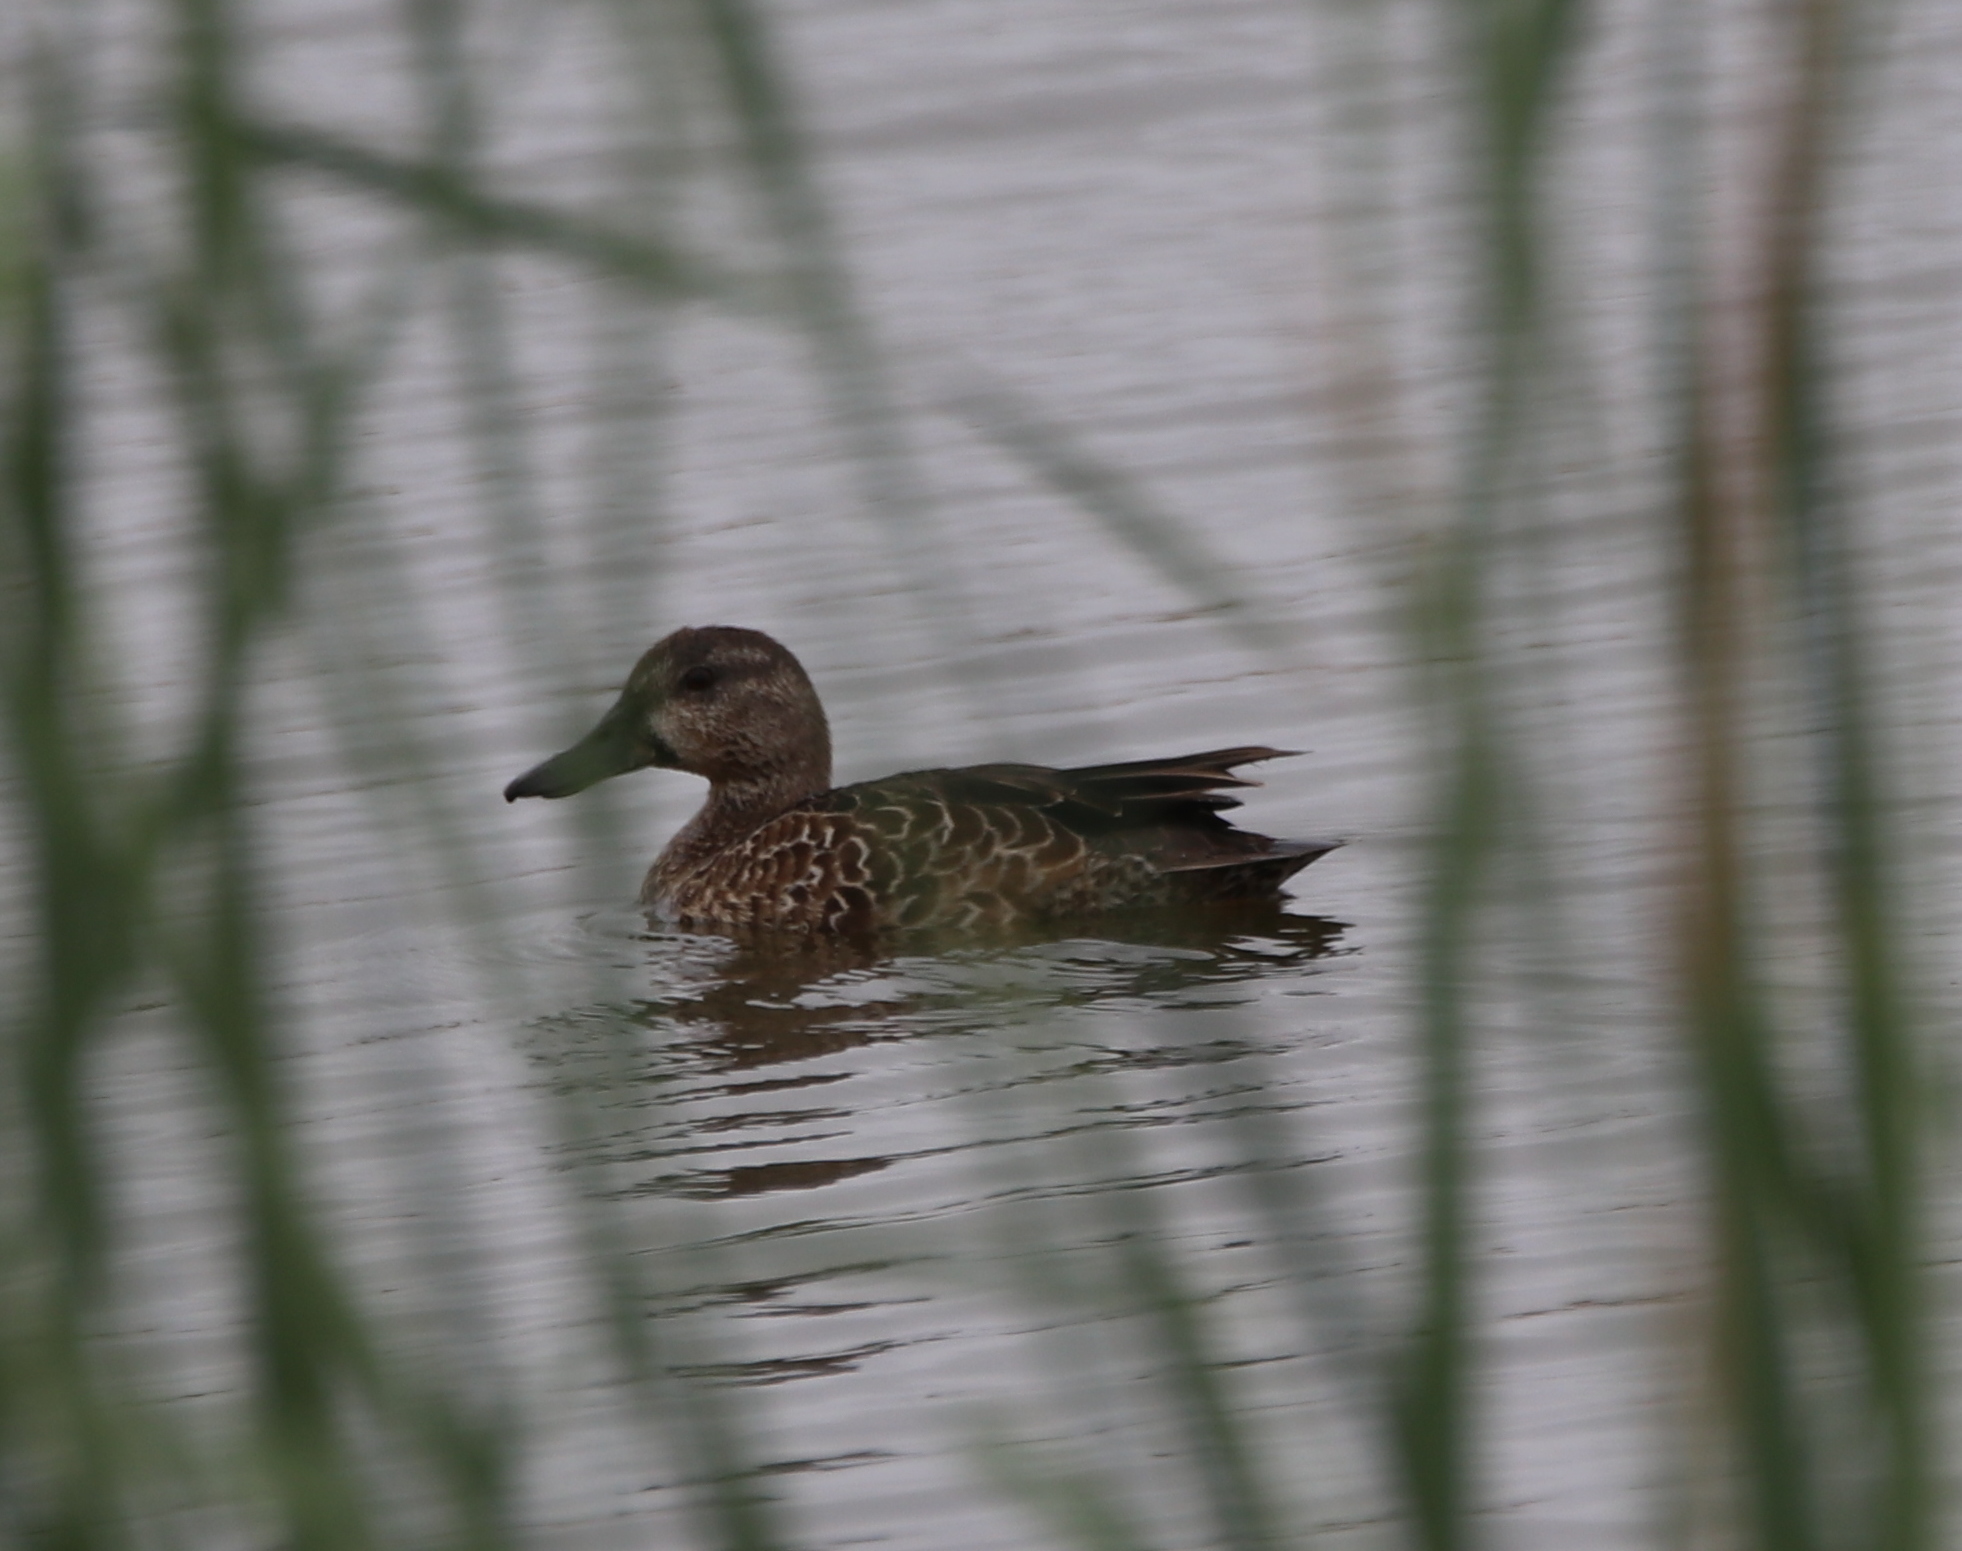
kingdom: Animalia
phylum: Chordata
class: Aves
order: Anseriformes
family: Anatidae
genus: Spatula
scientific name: Spatula discors
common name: Blue-winged teal
